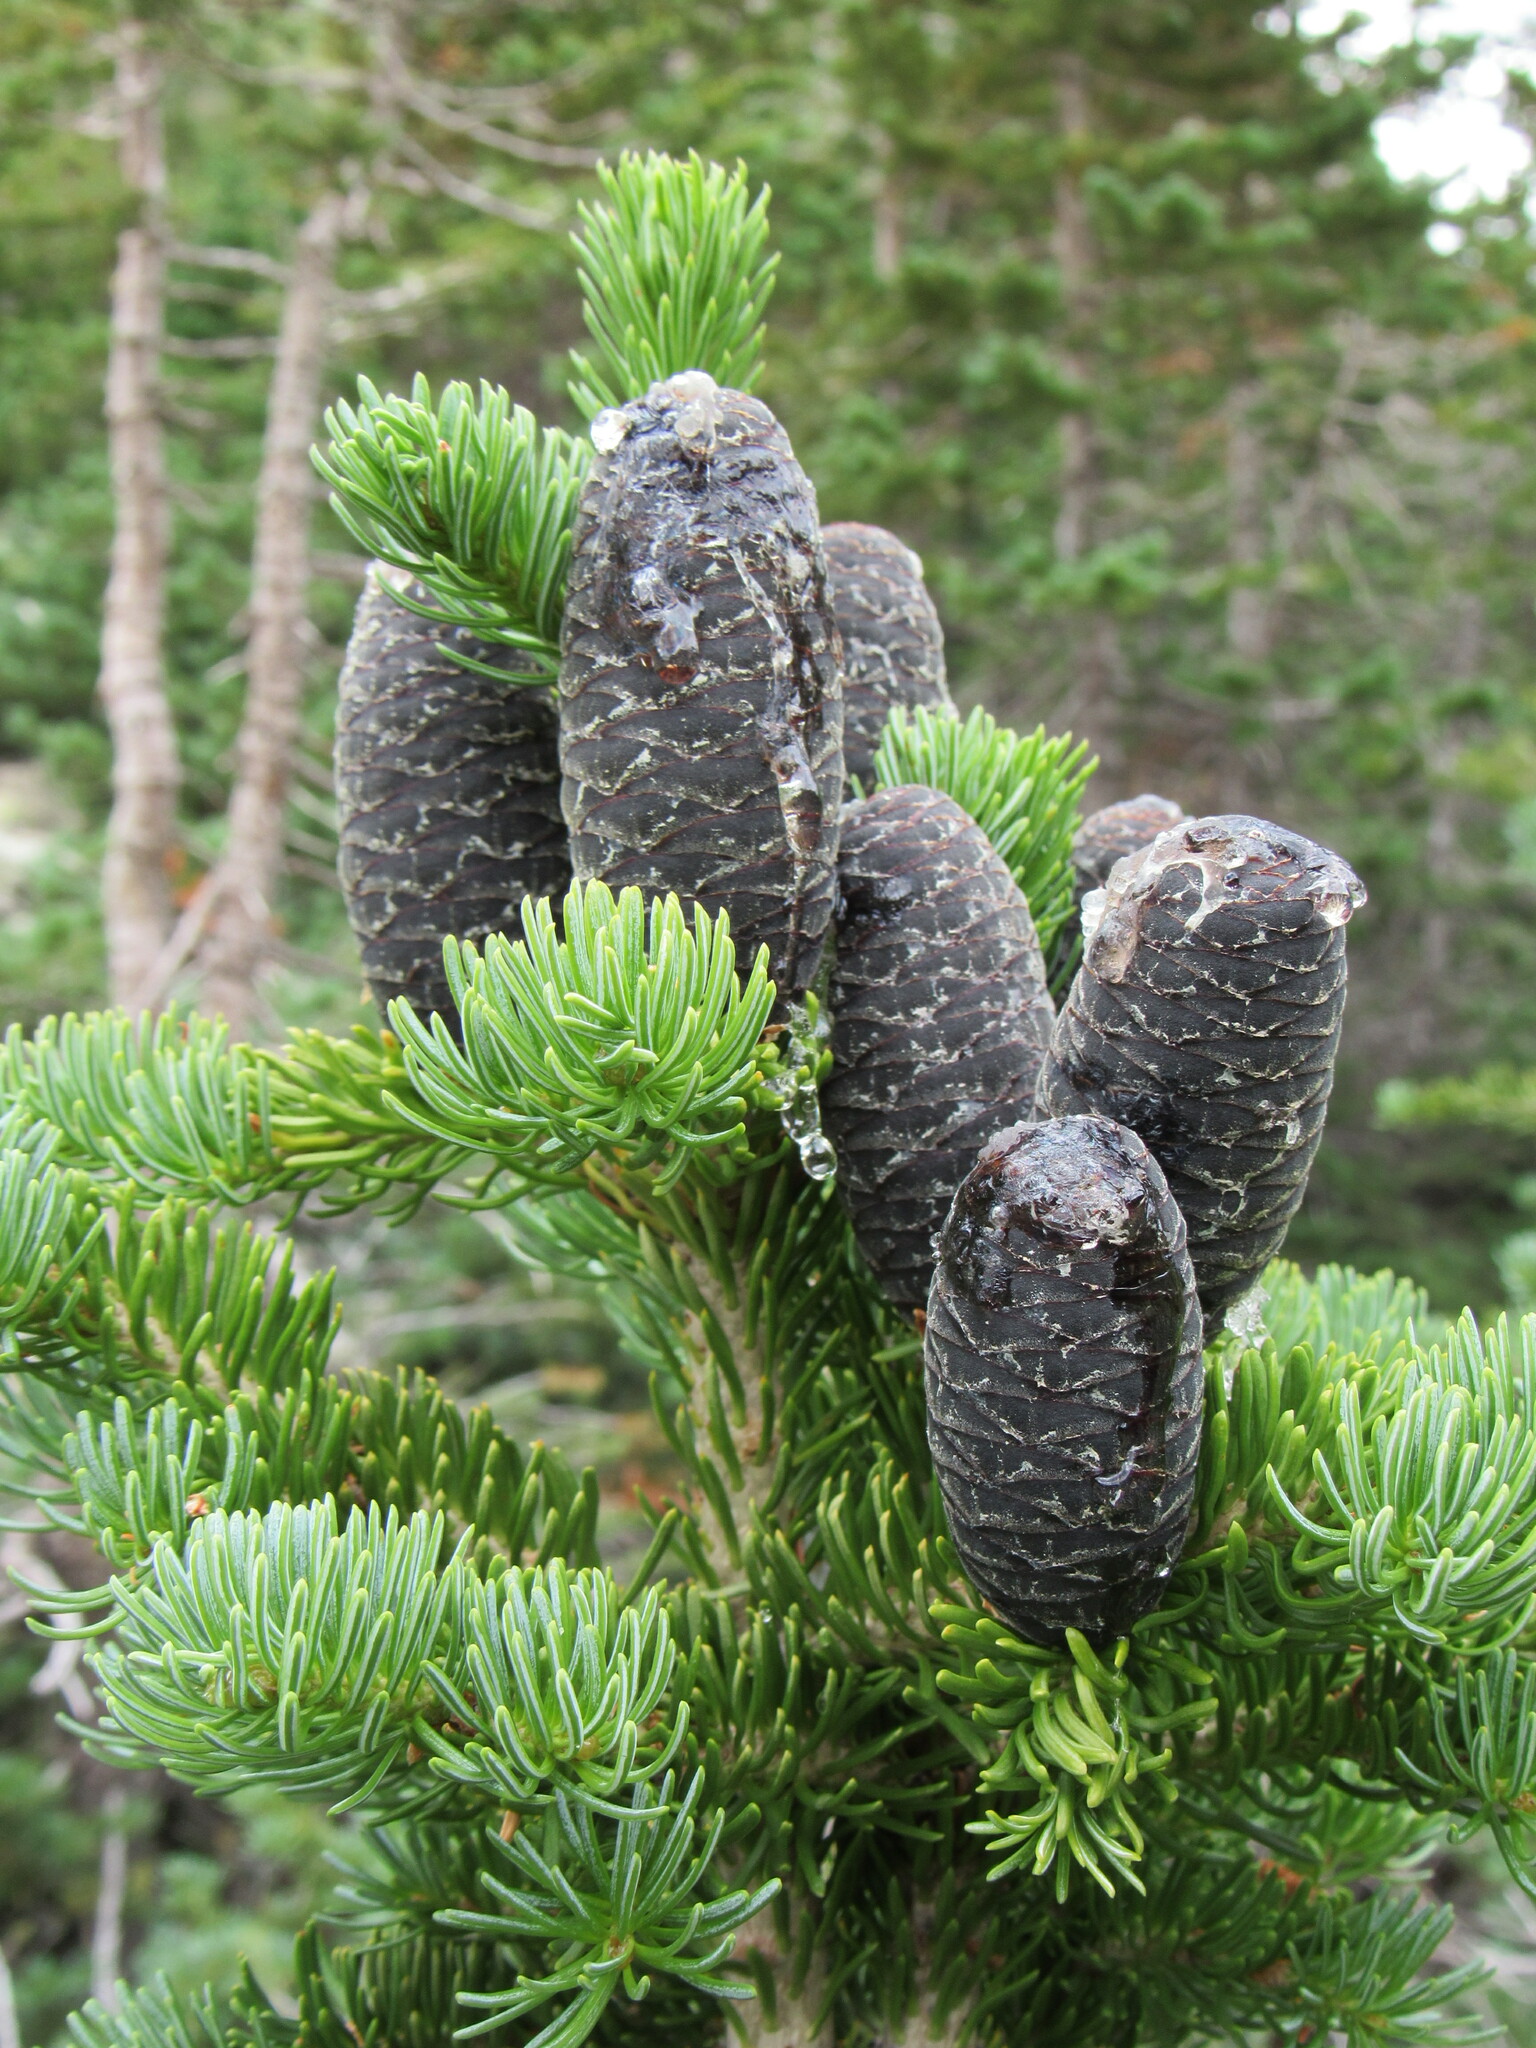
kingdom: Plantae
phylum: Tracheophyta
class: Pinopsida
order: Pinales
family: Pinaceae
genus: Abies
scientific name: Abies lasiocarpa
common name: Subalpine fir
